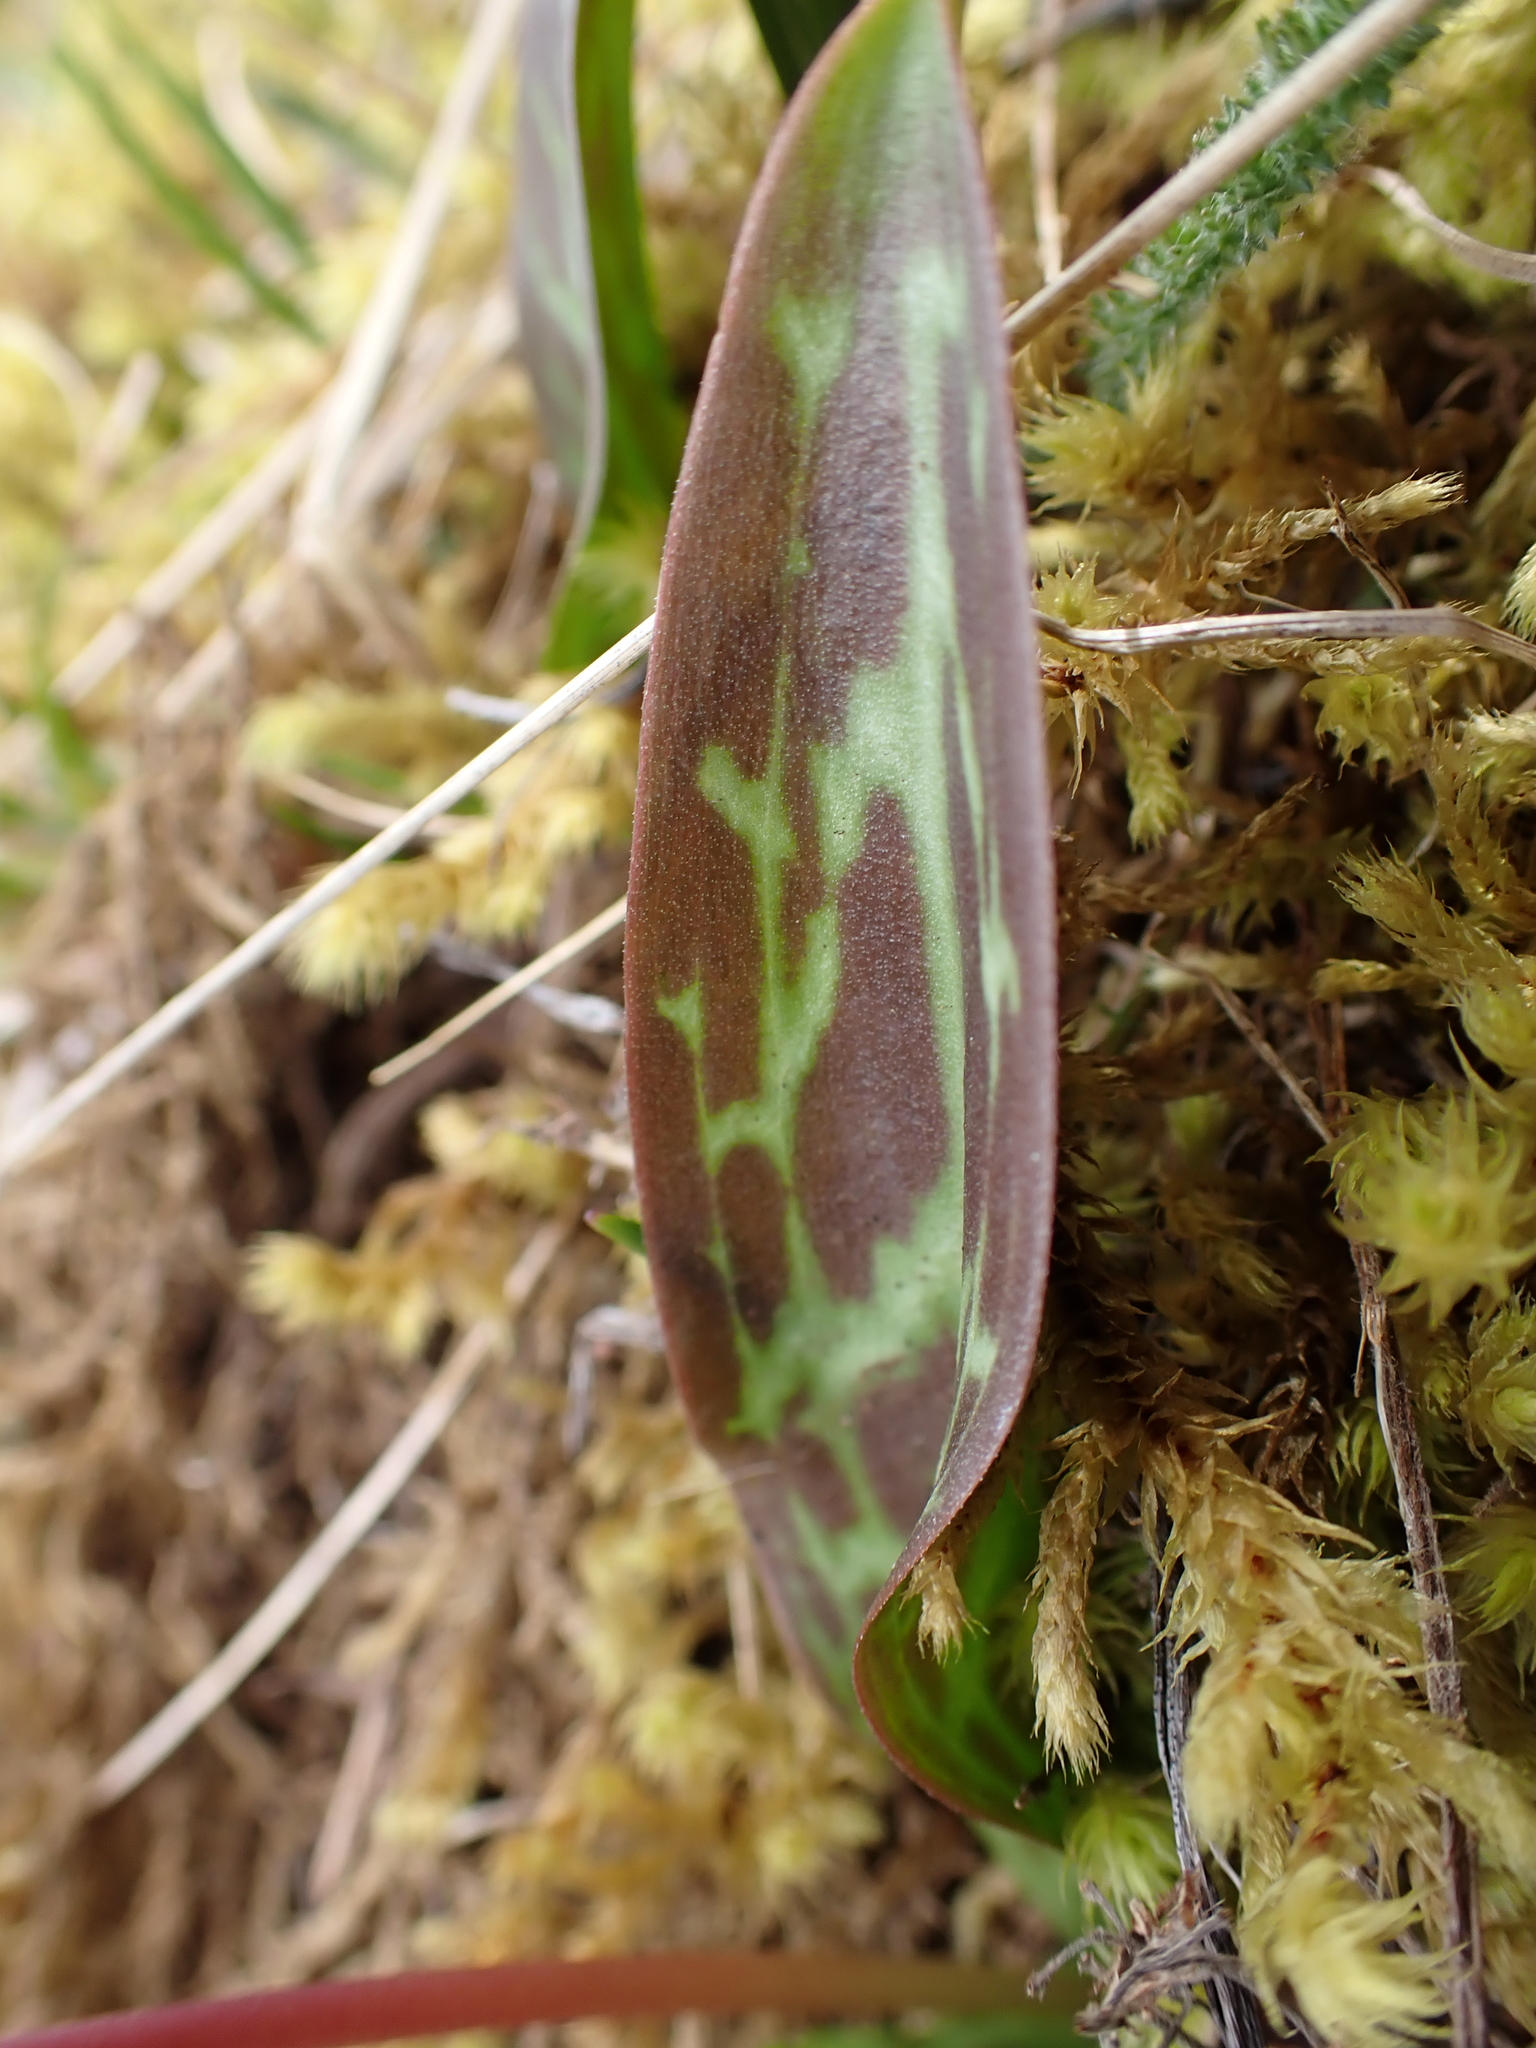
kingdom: Plantae
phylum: Tracheophyta
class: Liliopsida
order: Liliales
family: Liliaceae
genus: Erythronium
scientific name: Erythronium oregonum
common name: Giant adder's-tongue
